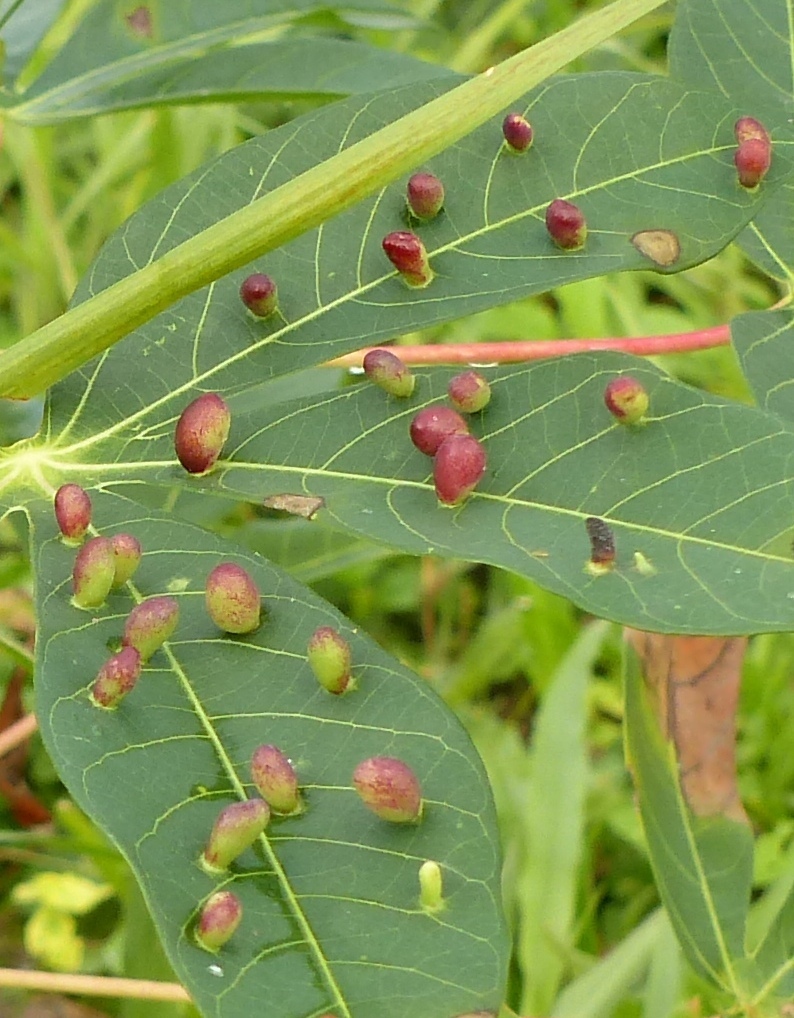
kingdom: Animalia
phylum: Arthropoda
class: Insecta
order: Diptera
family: Cecidomyiidae
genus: Iatrophobia
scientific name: Iatrophobia brasiliensis
